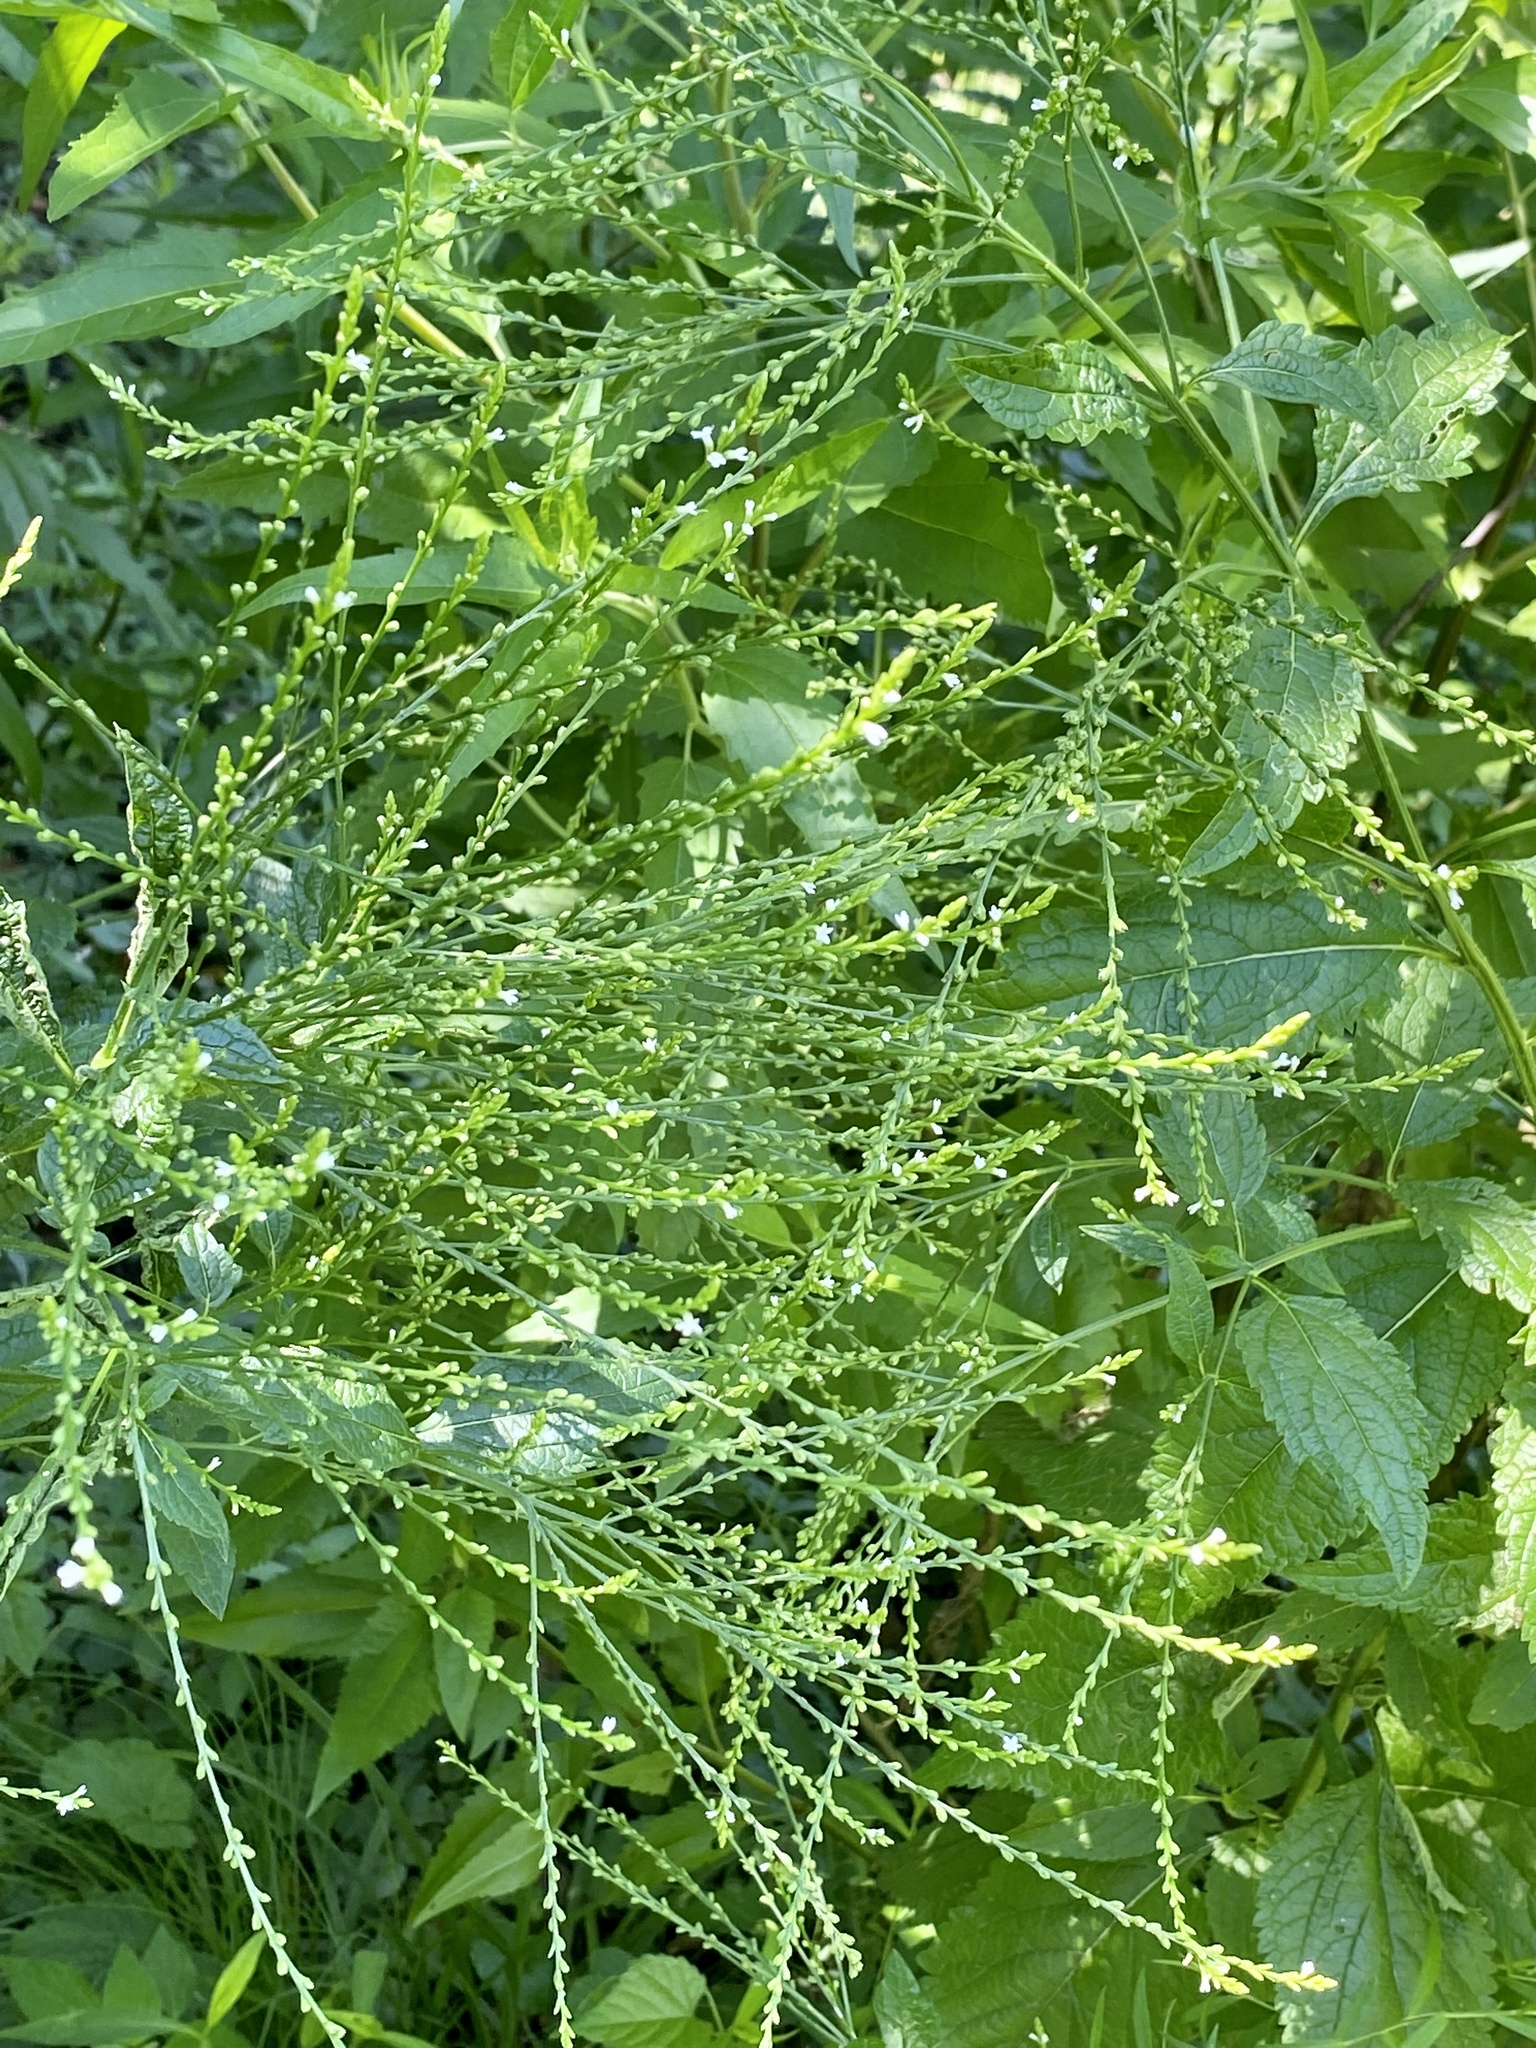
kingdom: Plantae
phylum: Tracheophyta
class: Magnoliopsida
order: Lamiales
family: Verbenaceae
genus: Verbena
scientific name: Verbena urticifolia
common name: Nettle-leaved vervain
